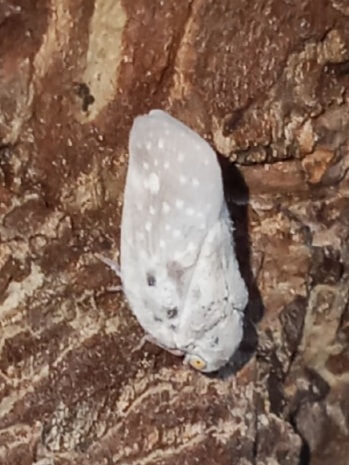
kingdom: Animalia
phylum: Arthropoda
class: Insecta
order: Hemiptera
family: Flatidae
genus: Metcalfa
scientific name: Metcalfa pruinosa
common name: Citrus flatid planthopper
